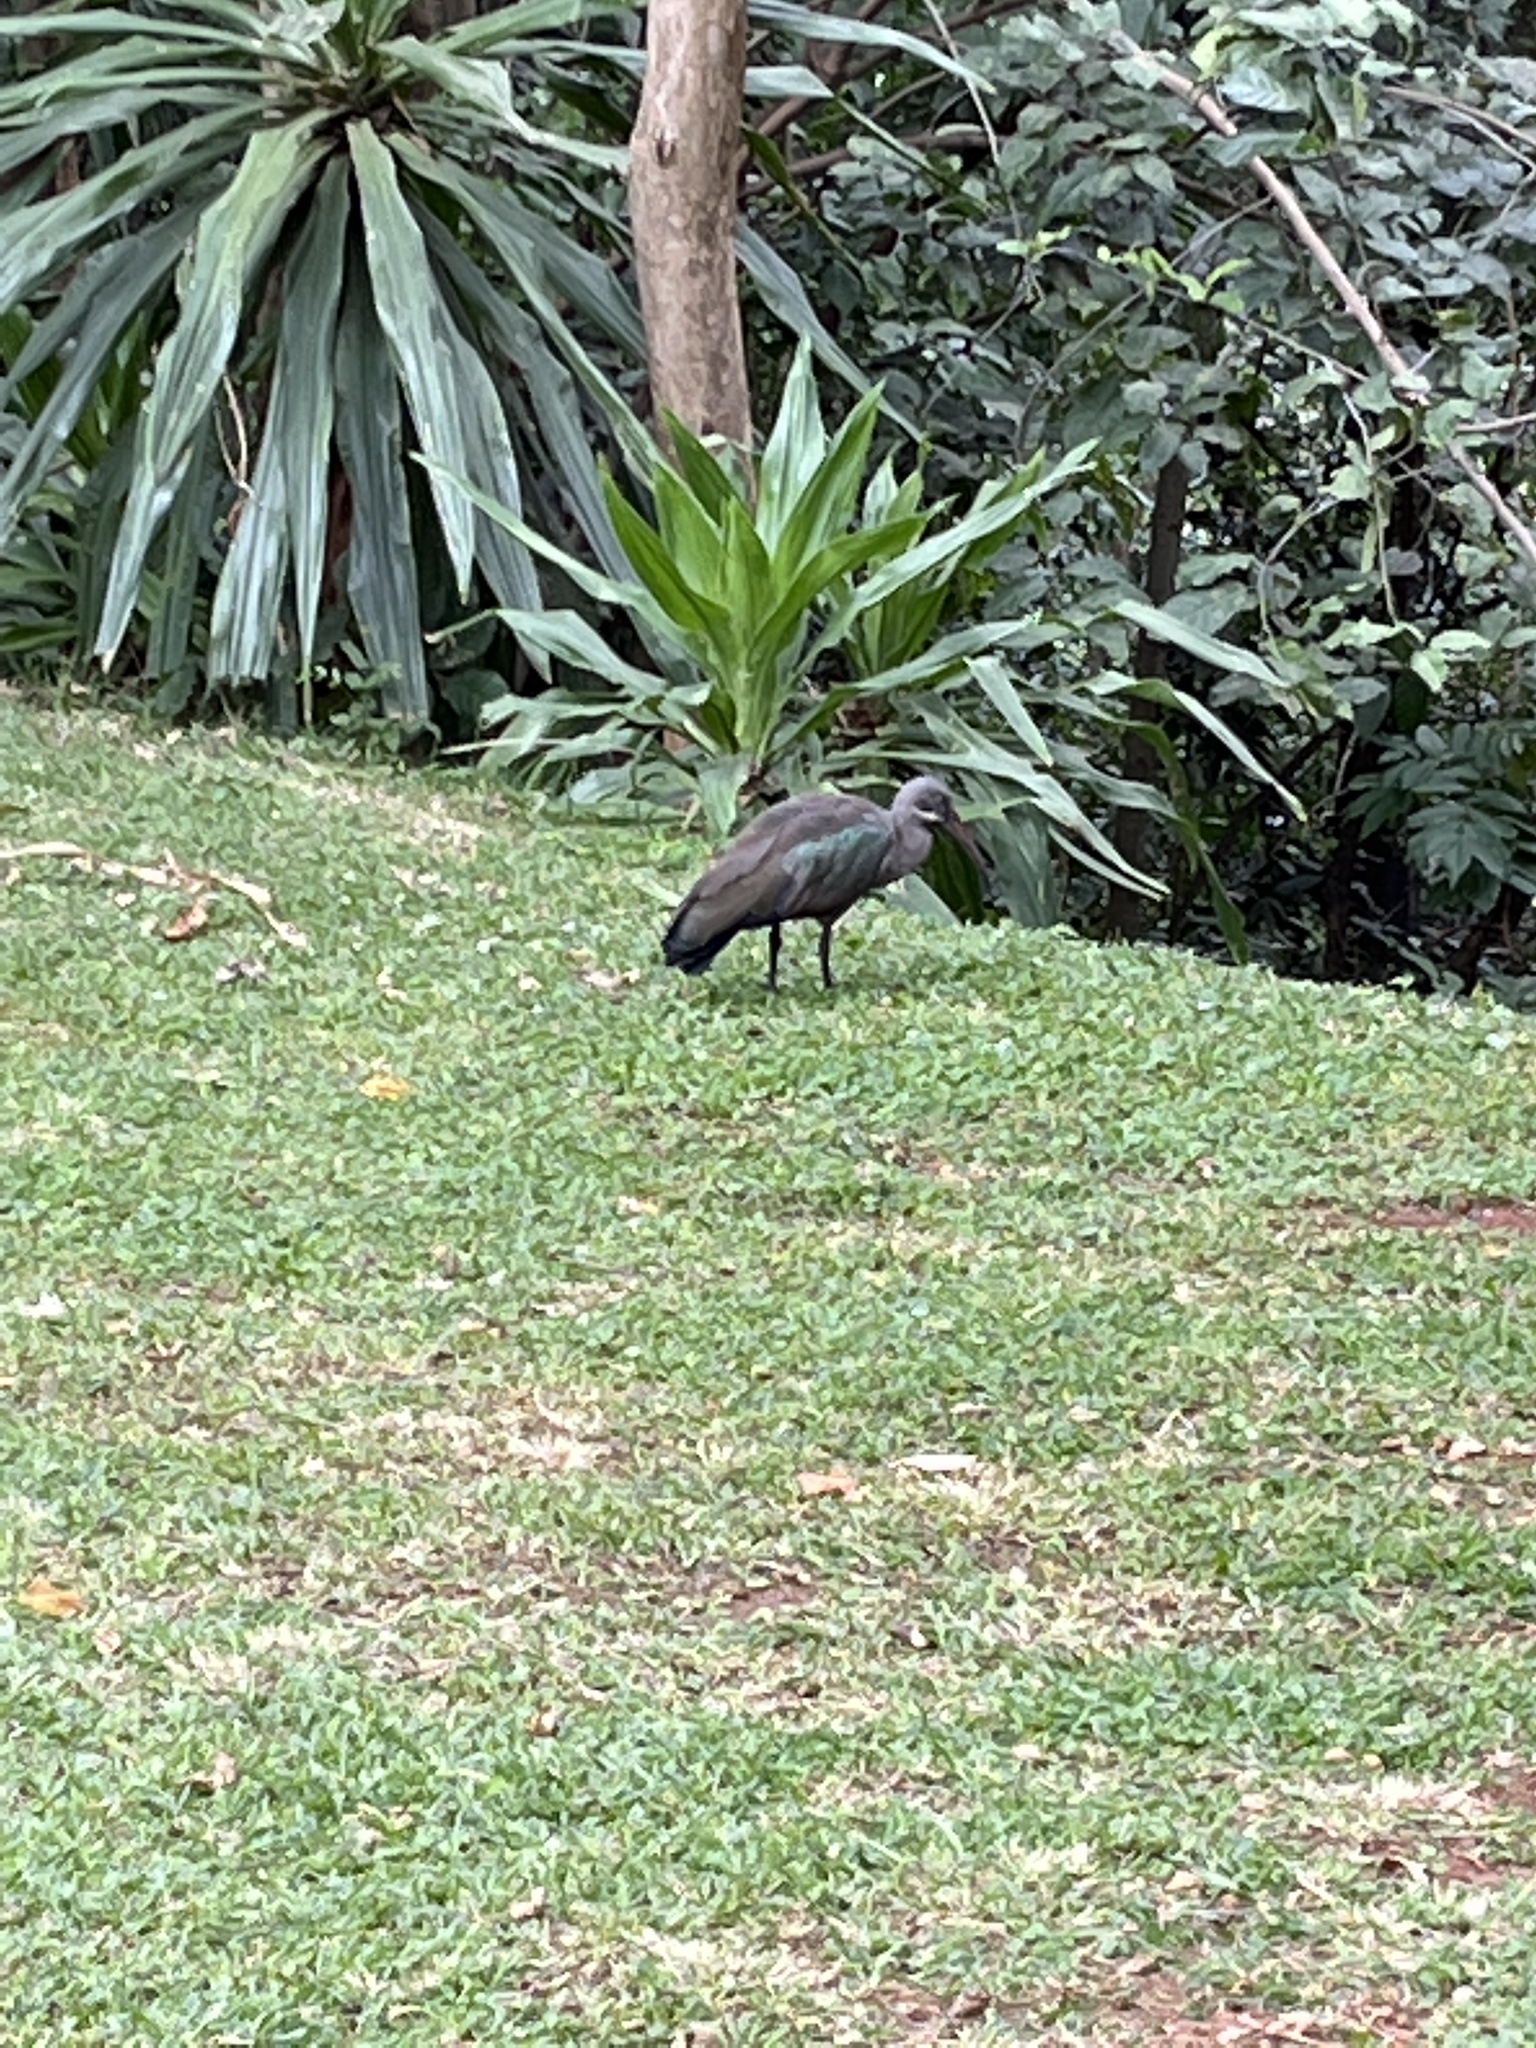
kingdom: Animalia
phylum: Chordata
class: Aves
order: Pelecaniformes
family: Threskiornithidae
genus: Bostrychia
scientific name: Bostrychia hagedash
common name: Hadada ibis
